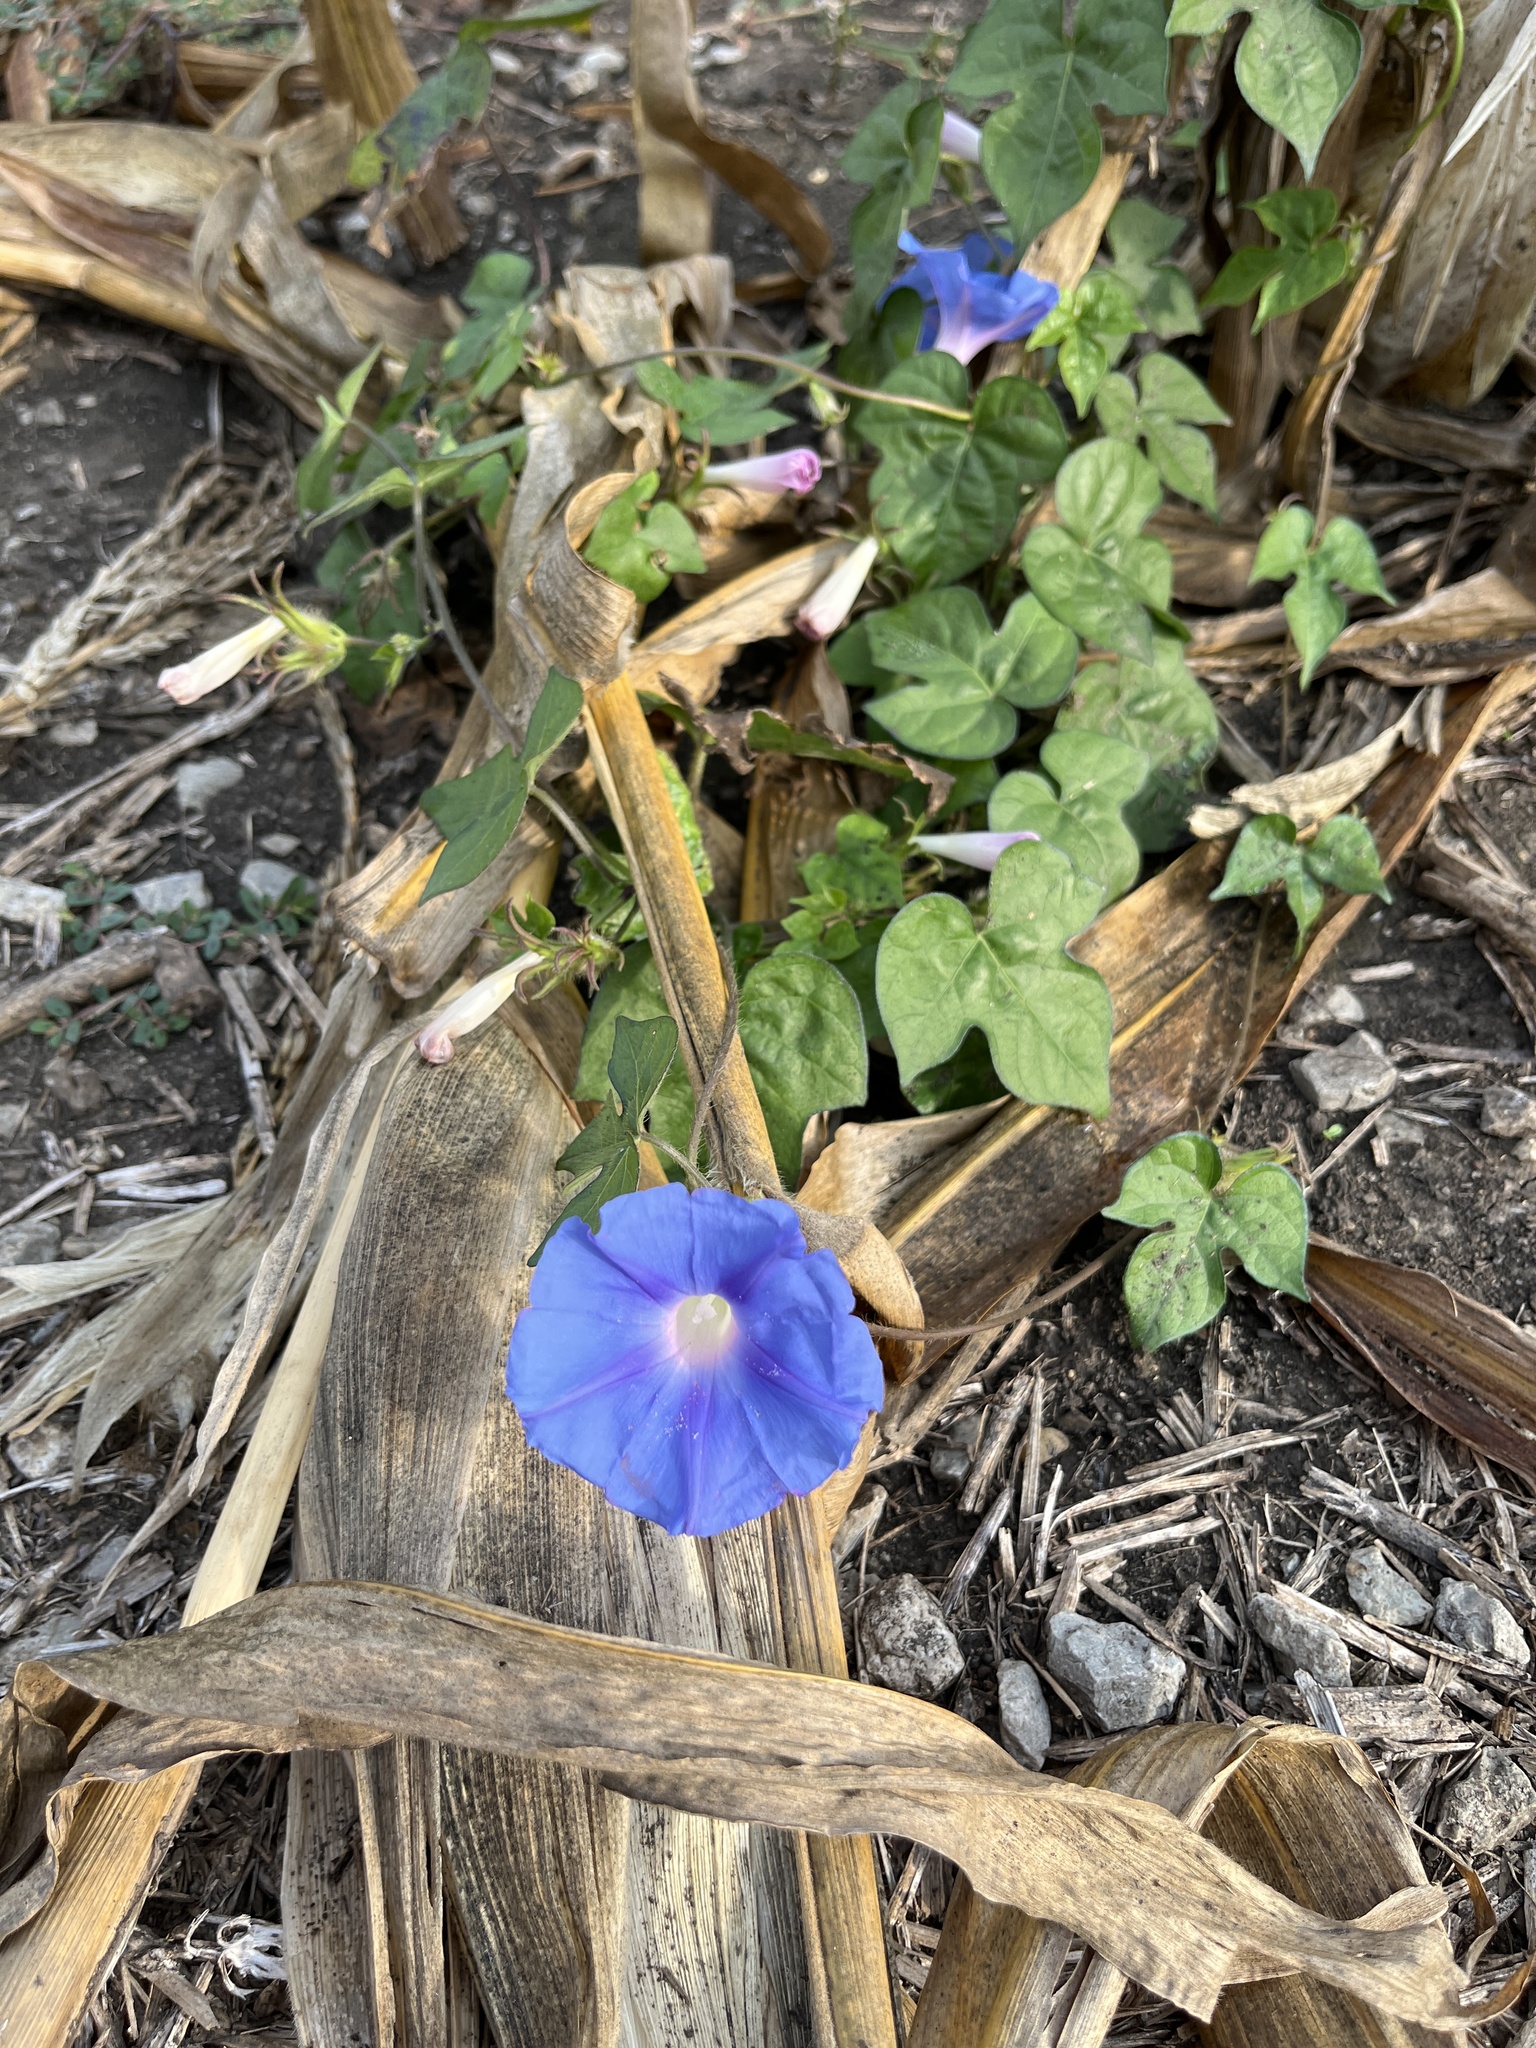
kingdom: Plantae
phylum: Tracheophyta
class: Magnoliopsida
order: Solanales
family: Convolvulaceae
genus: Ipomoea
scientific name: Ipomoea hederacea
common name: Ivy-leaved morning-glory
